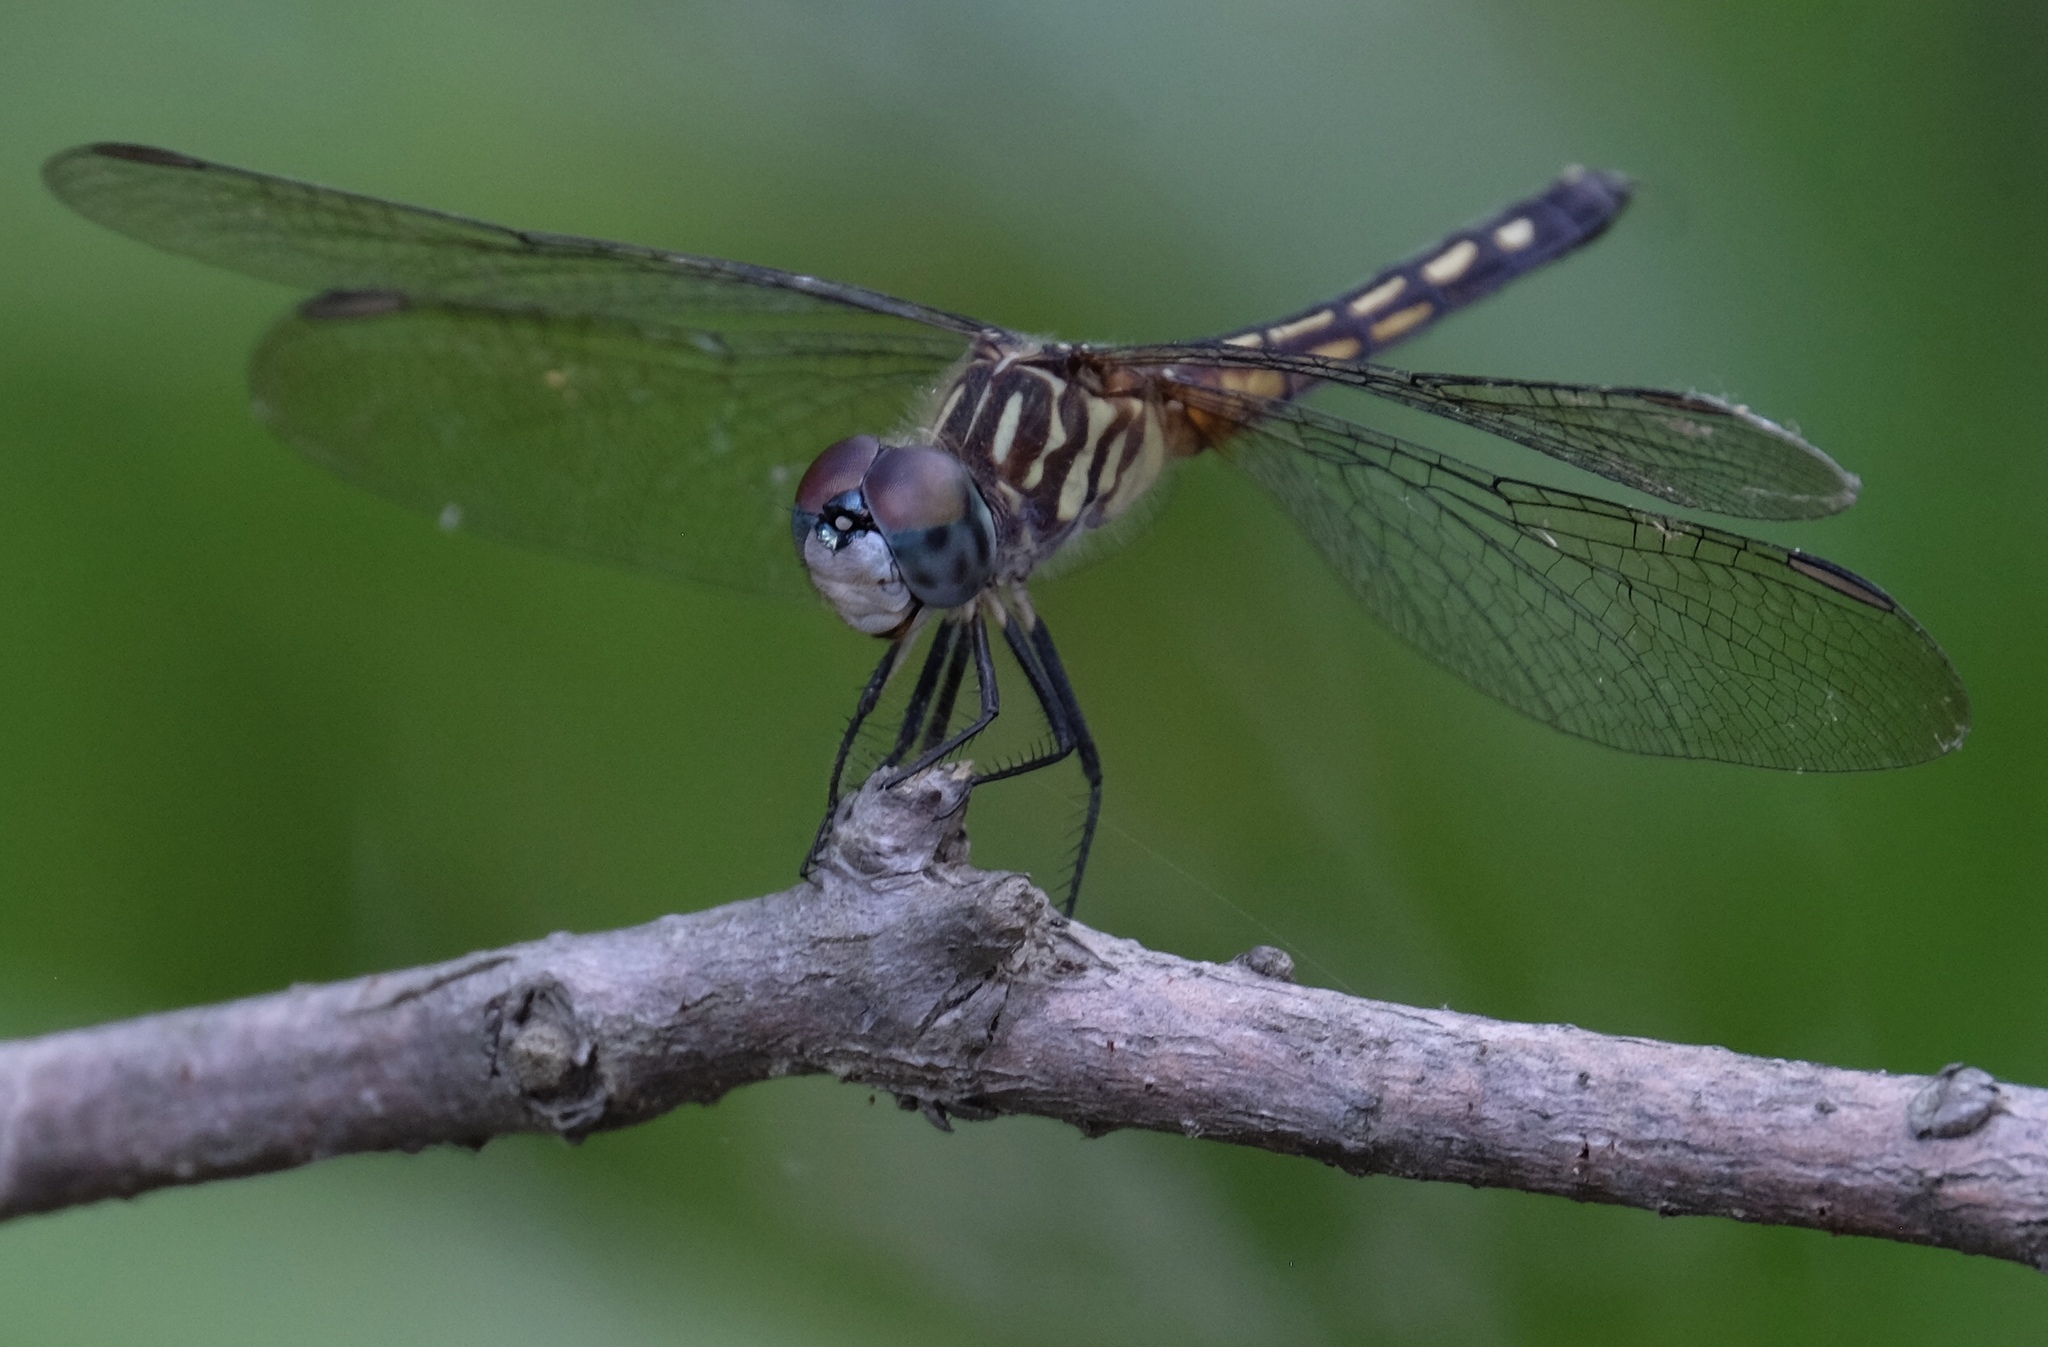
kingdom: Animalia
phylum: Arthropoda
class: Insecta
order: Odonata
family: Libellulidae
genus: Pachydiplax
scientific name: Pachydiplax longipennis
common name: Blue dasher
